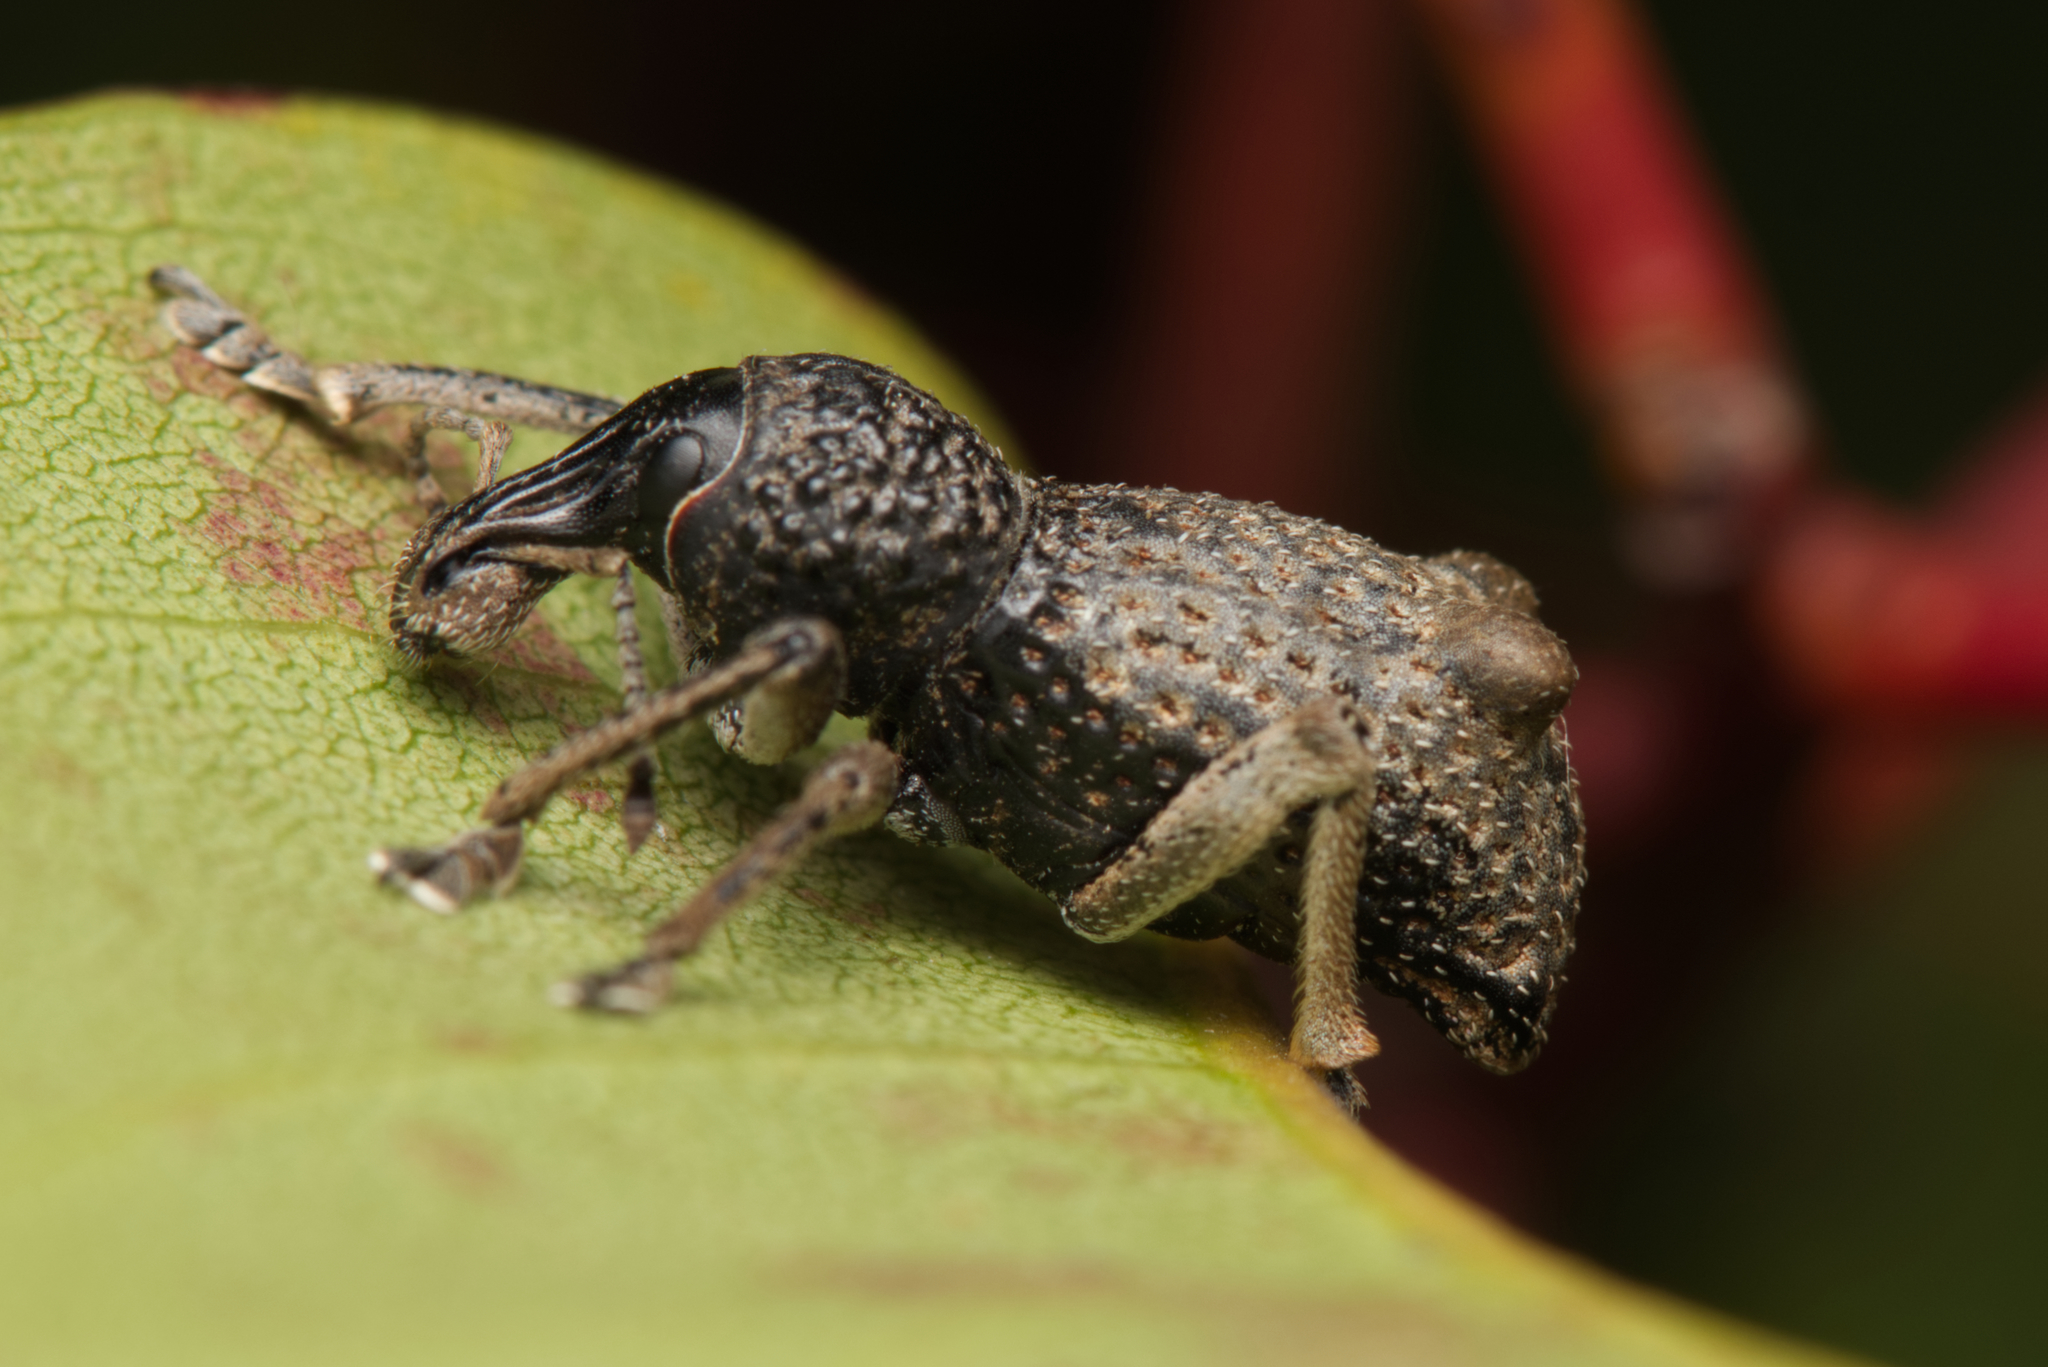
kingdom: Animalia
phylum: Arthropoda
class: Insecta
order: Coleoptera
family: Curculionidae
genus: Zymaus
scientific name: Zymaus binodosus
